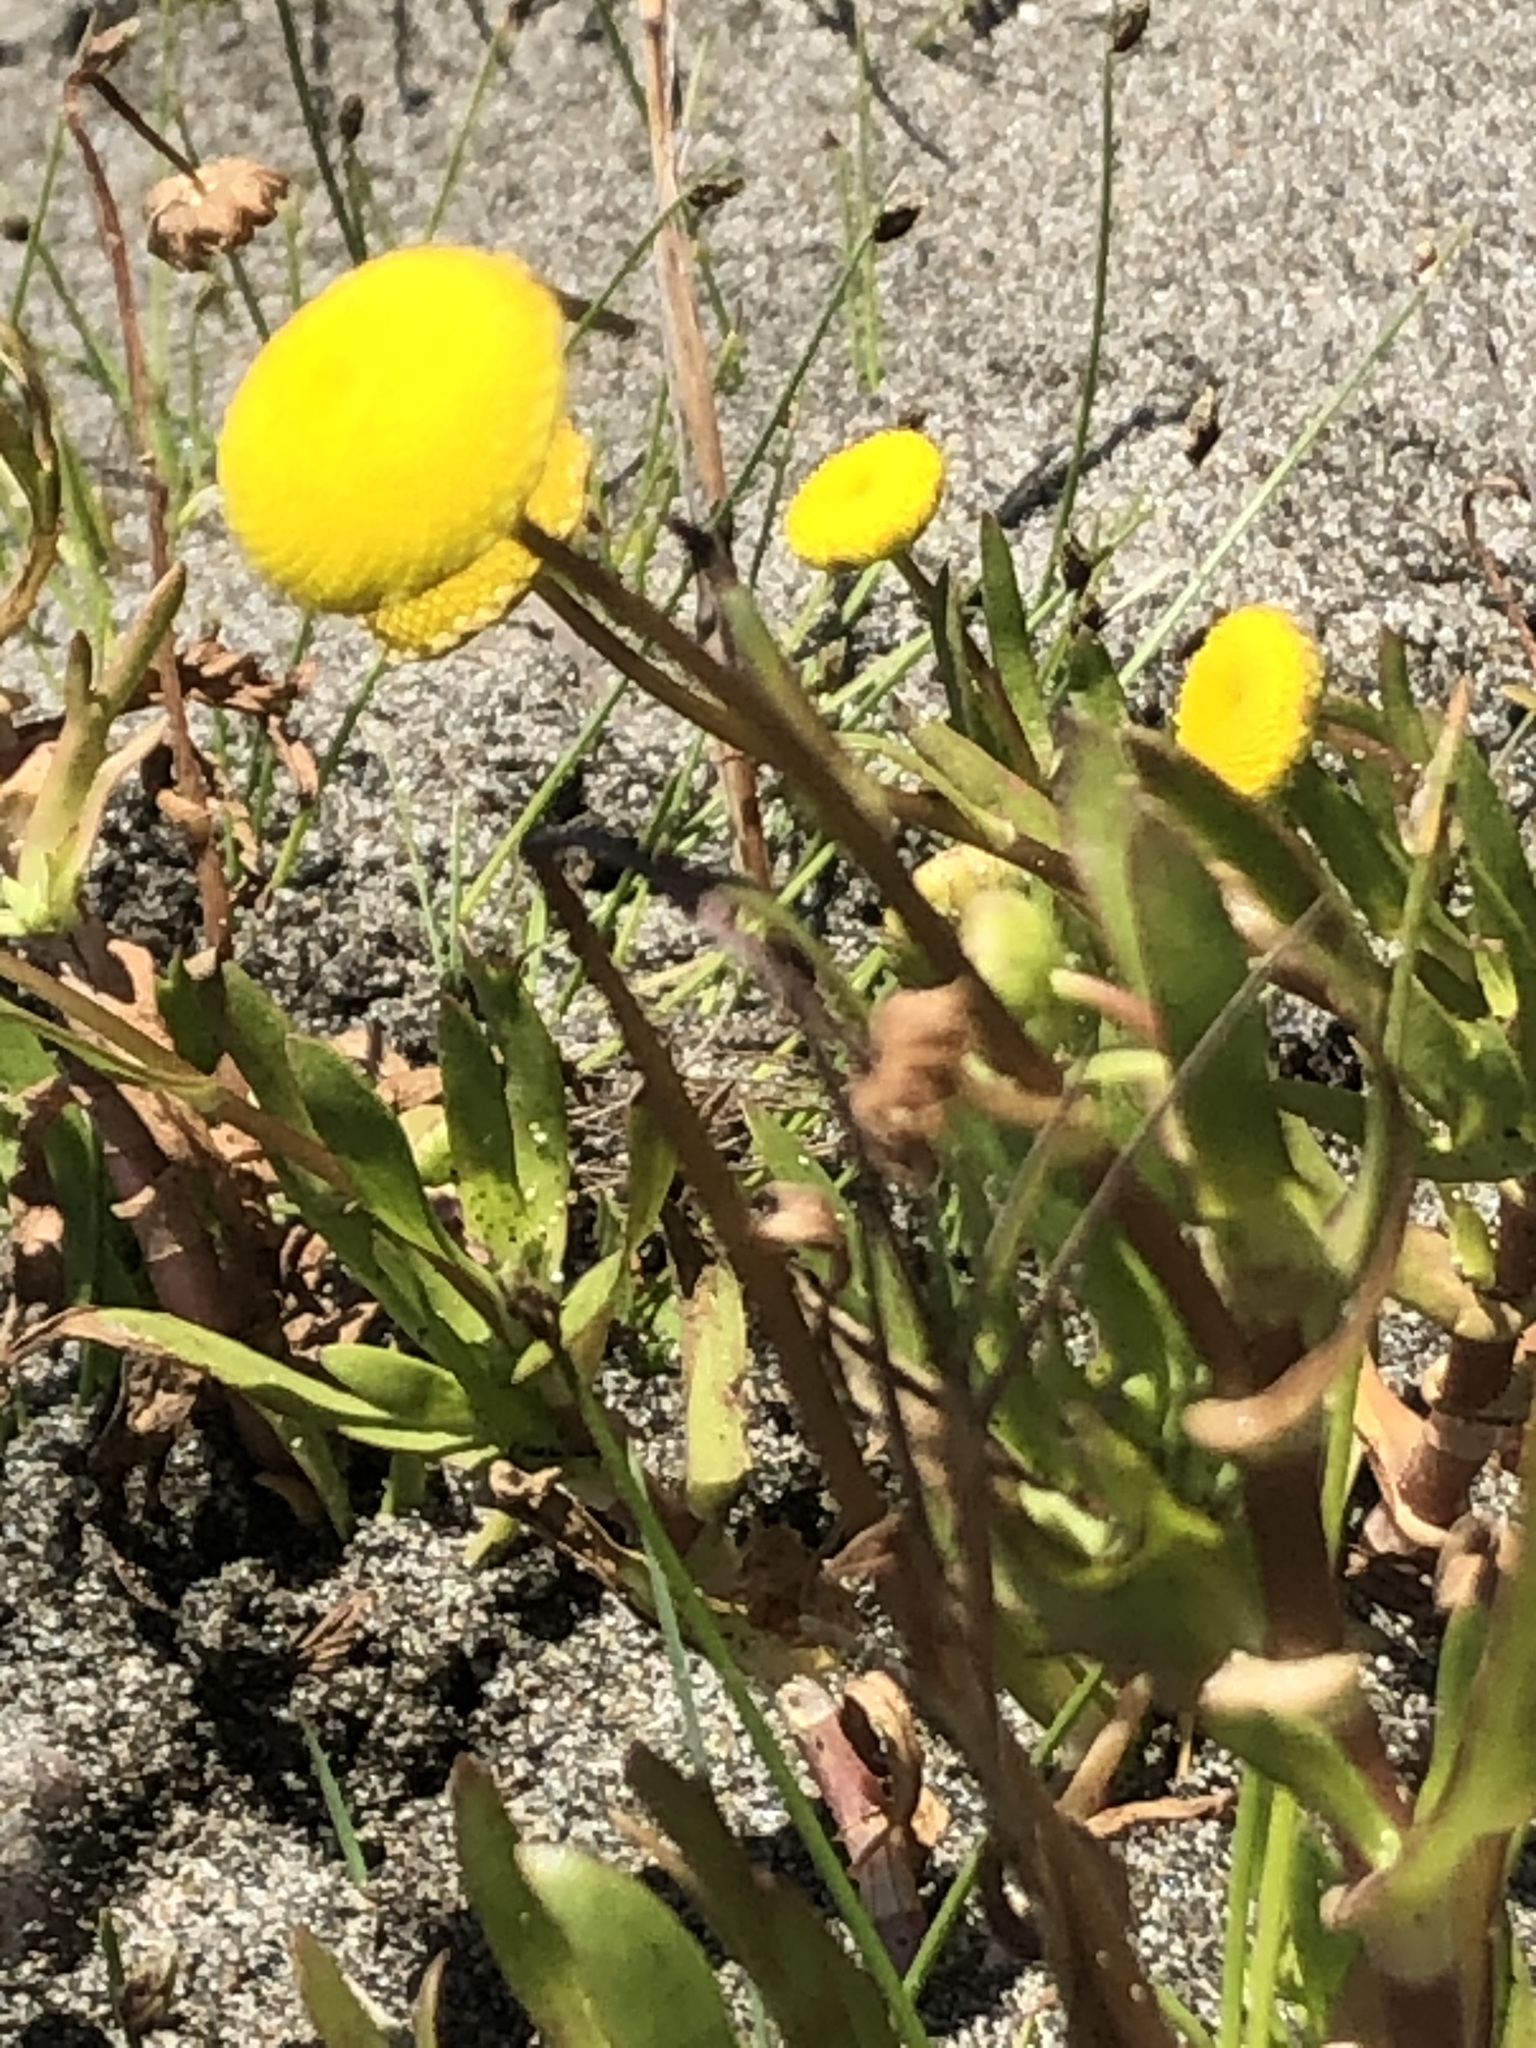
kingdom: Plantae
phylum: Tracheophyta
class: Magnoliopsida
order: Asterales
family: Asteraceae
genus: Cotula
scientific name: Cotula coronopifolia
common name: Buttonweed
